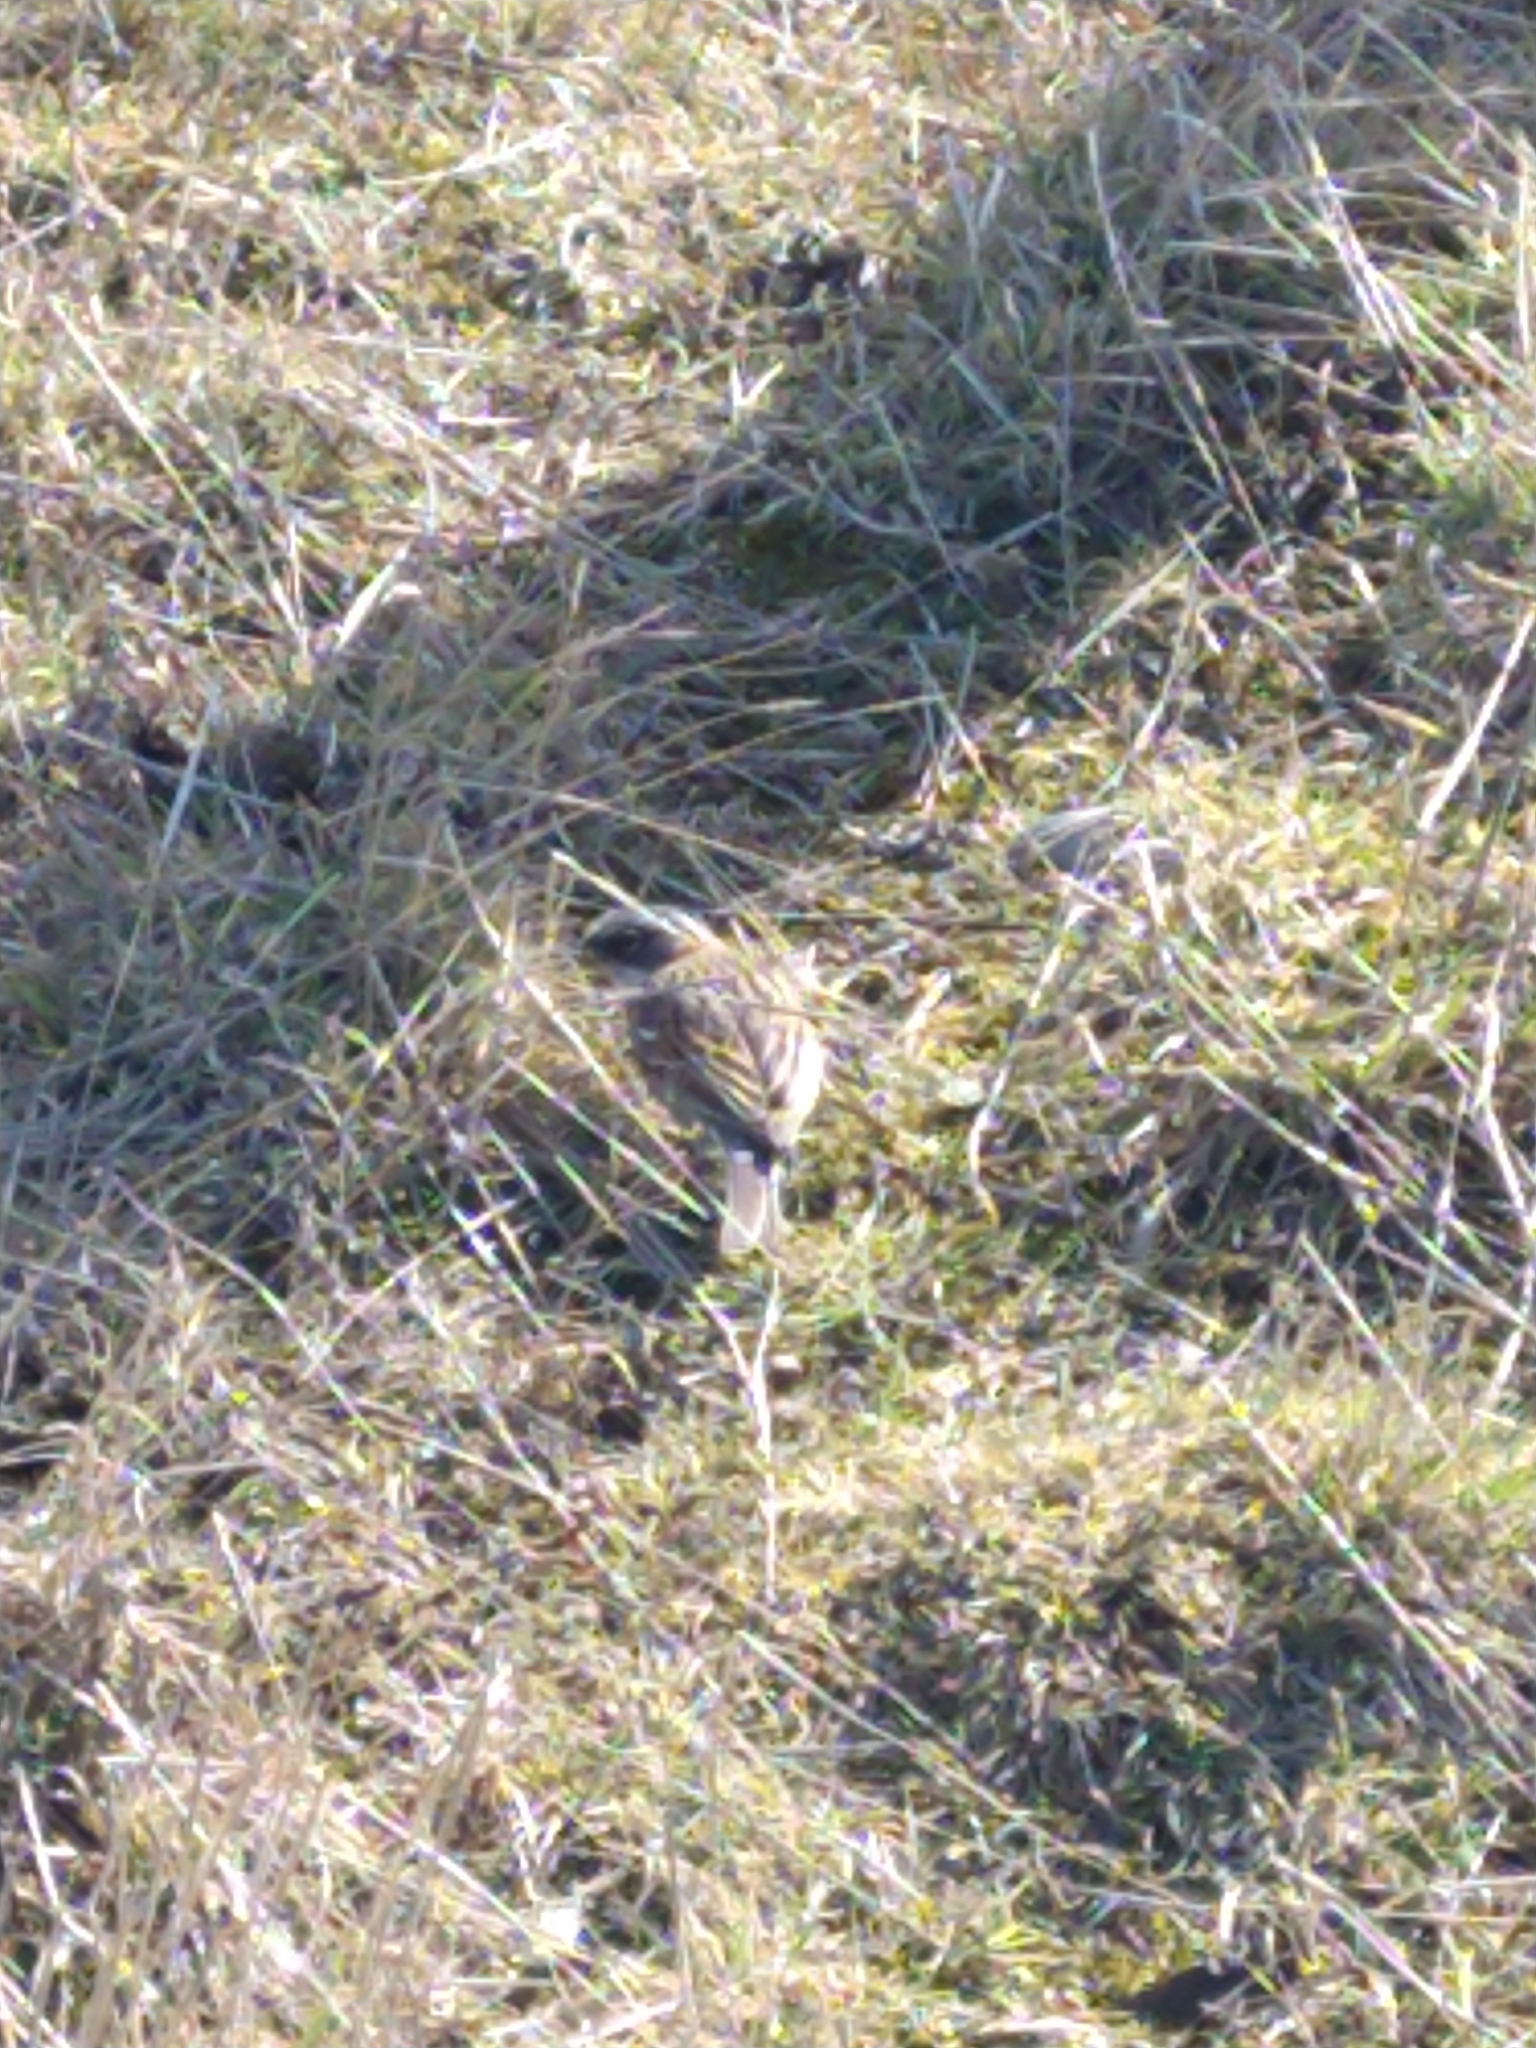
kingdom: Animalia
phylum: Chordata
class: Aves
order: Passeriformes
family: Passerellidae
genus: Zonotrichia
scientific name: Zonotrichia capensis
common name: Rufous-collared sparrow
